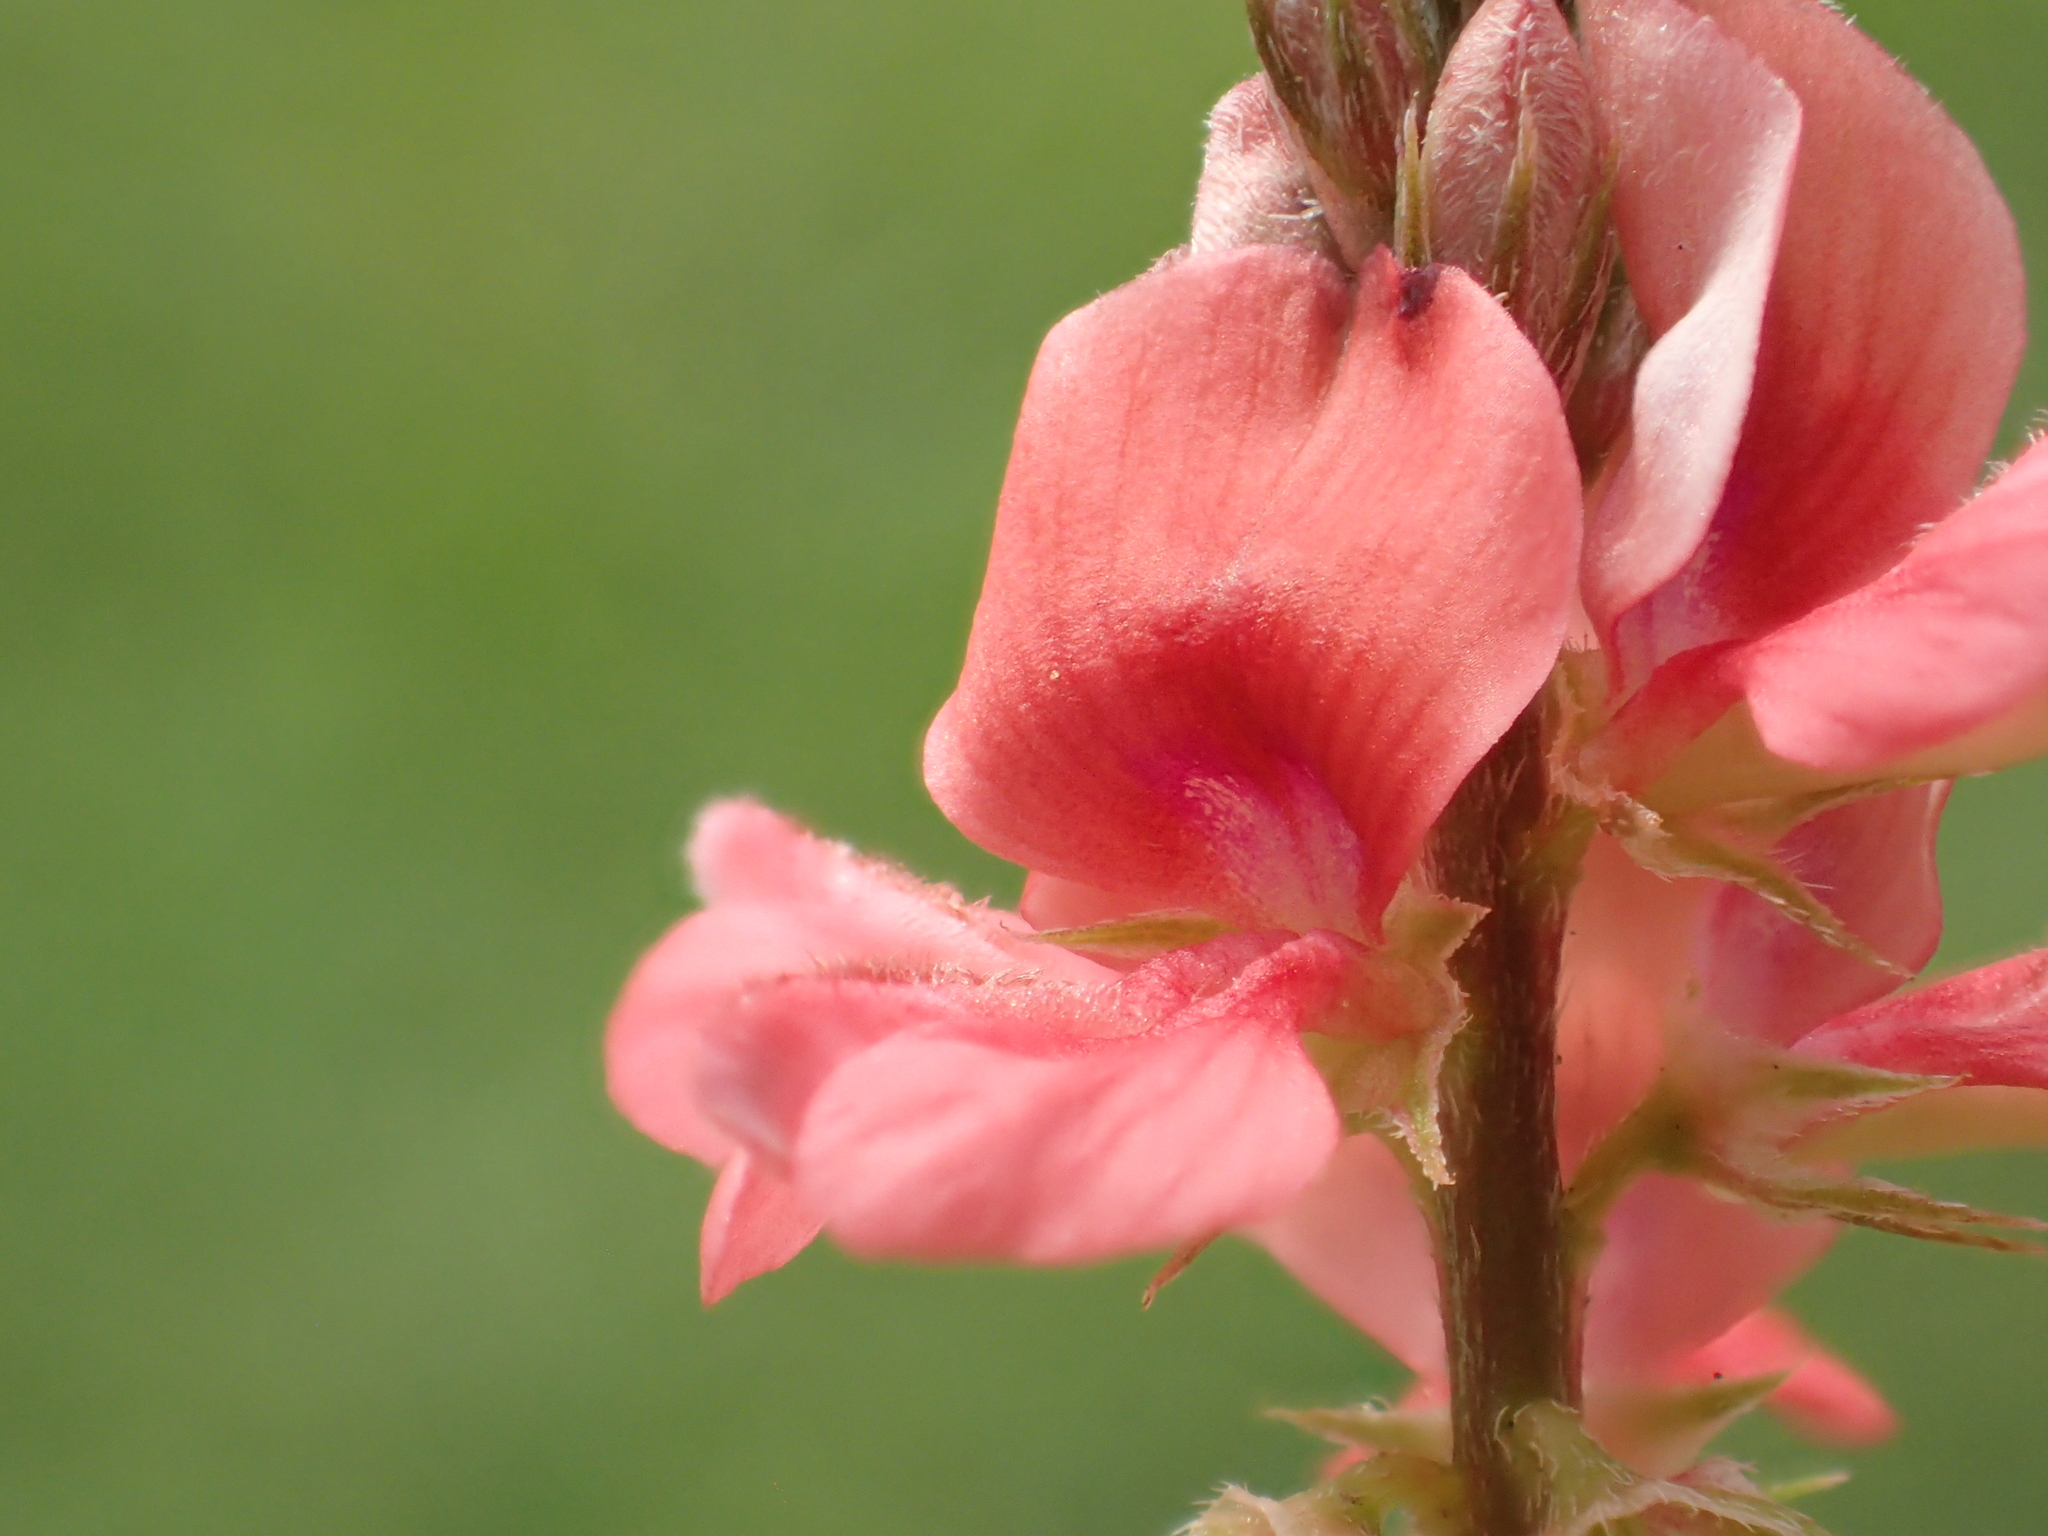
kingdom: Plantae
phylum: Tracheophyta
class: Magnoliopsida
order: Fabales
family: Fabaceae
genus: Indigofera
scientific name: Indigofera hendecaphylla
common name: Trailing indigo
